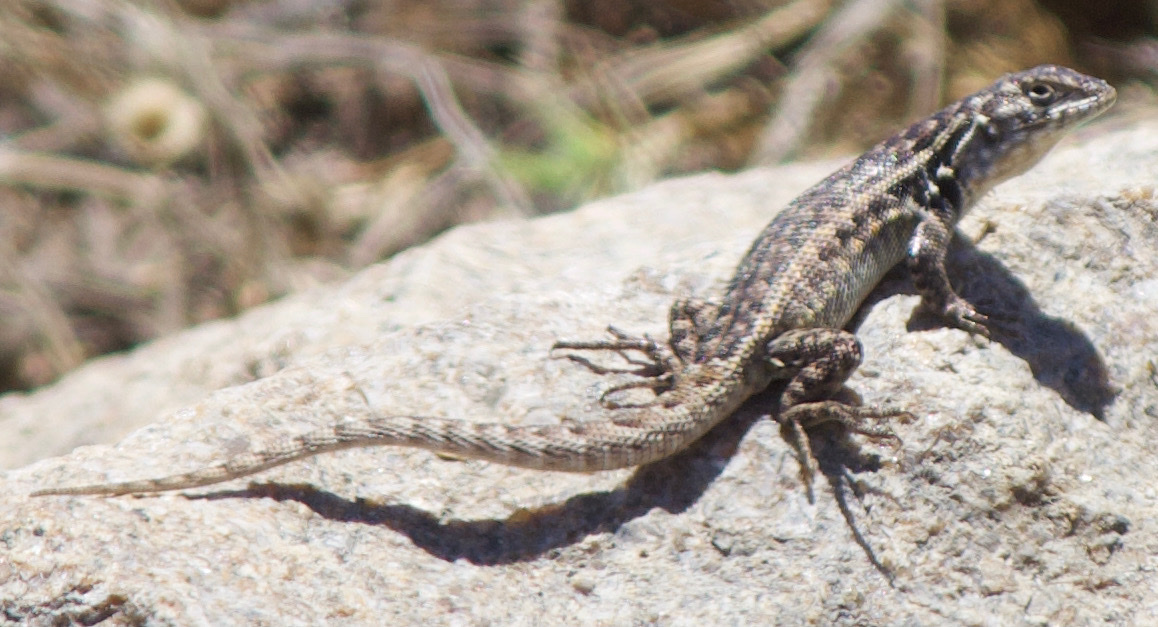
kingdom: Animalia
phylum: Chordata
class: Squamata
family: Liolaemidae
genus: Liolaemus
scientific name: Liolaemus zapallarensis
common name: Zapallaren tree iguana
